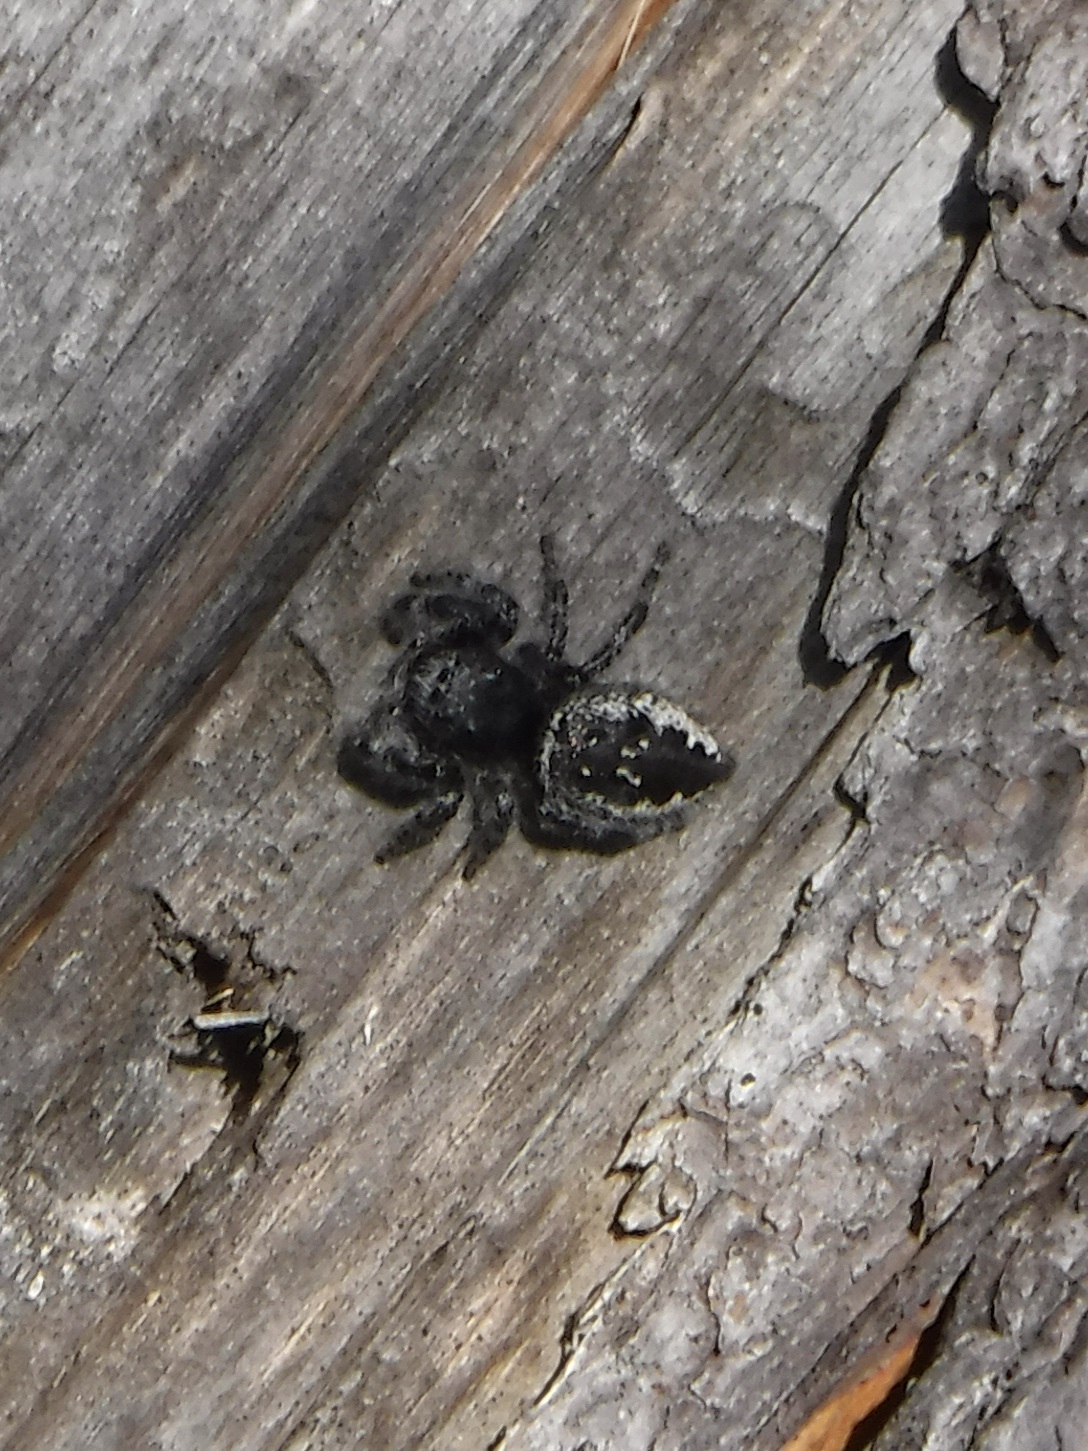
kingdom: Animalia
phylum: Arthropoda
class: Arachnida
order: Araneae
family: Salticidae
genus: Phidippus
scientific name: Phidippus borealis
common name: Boreal tufted jumping spider
